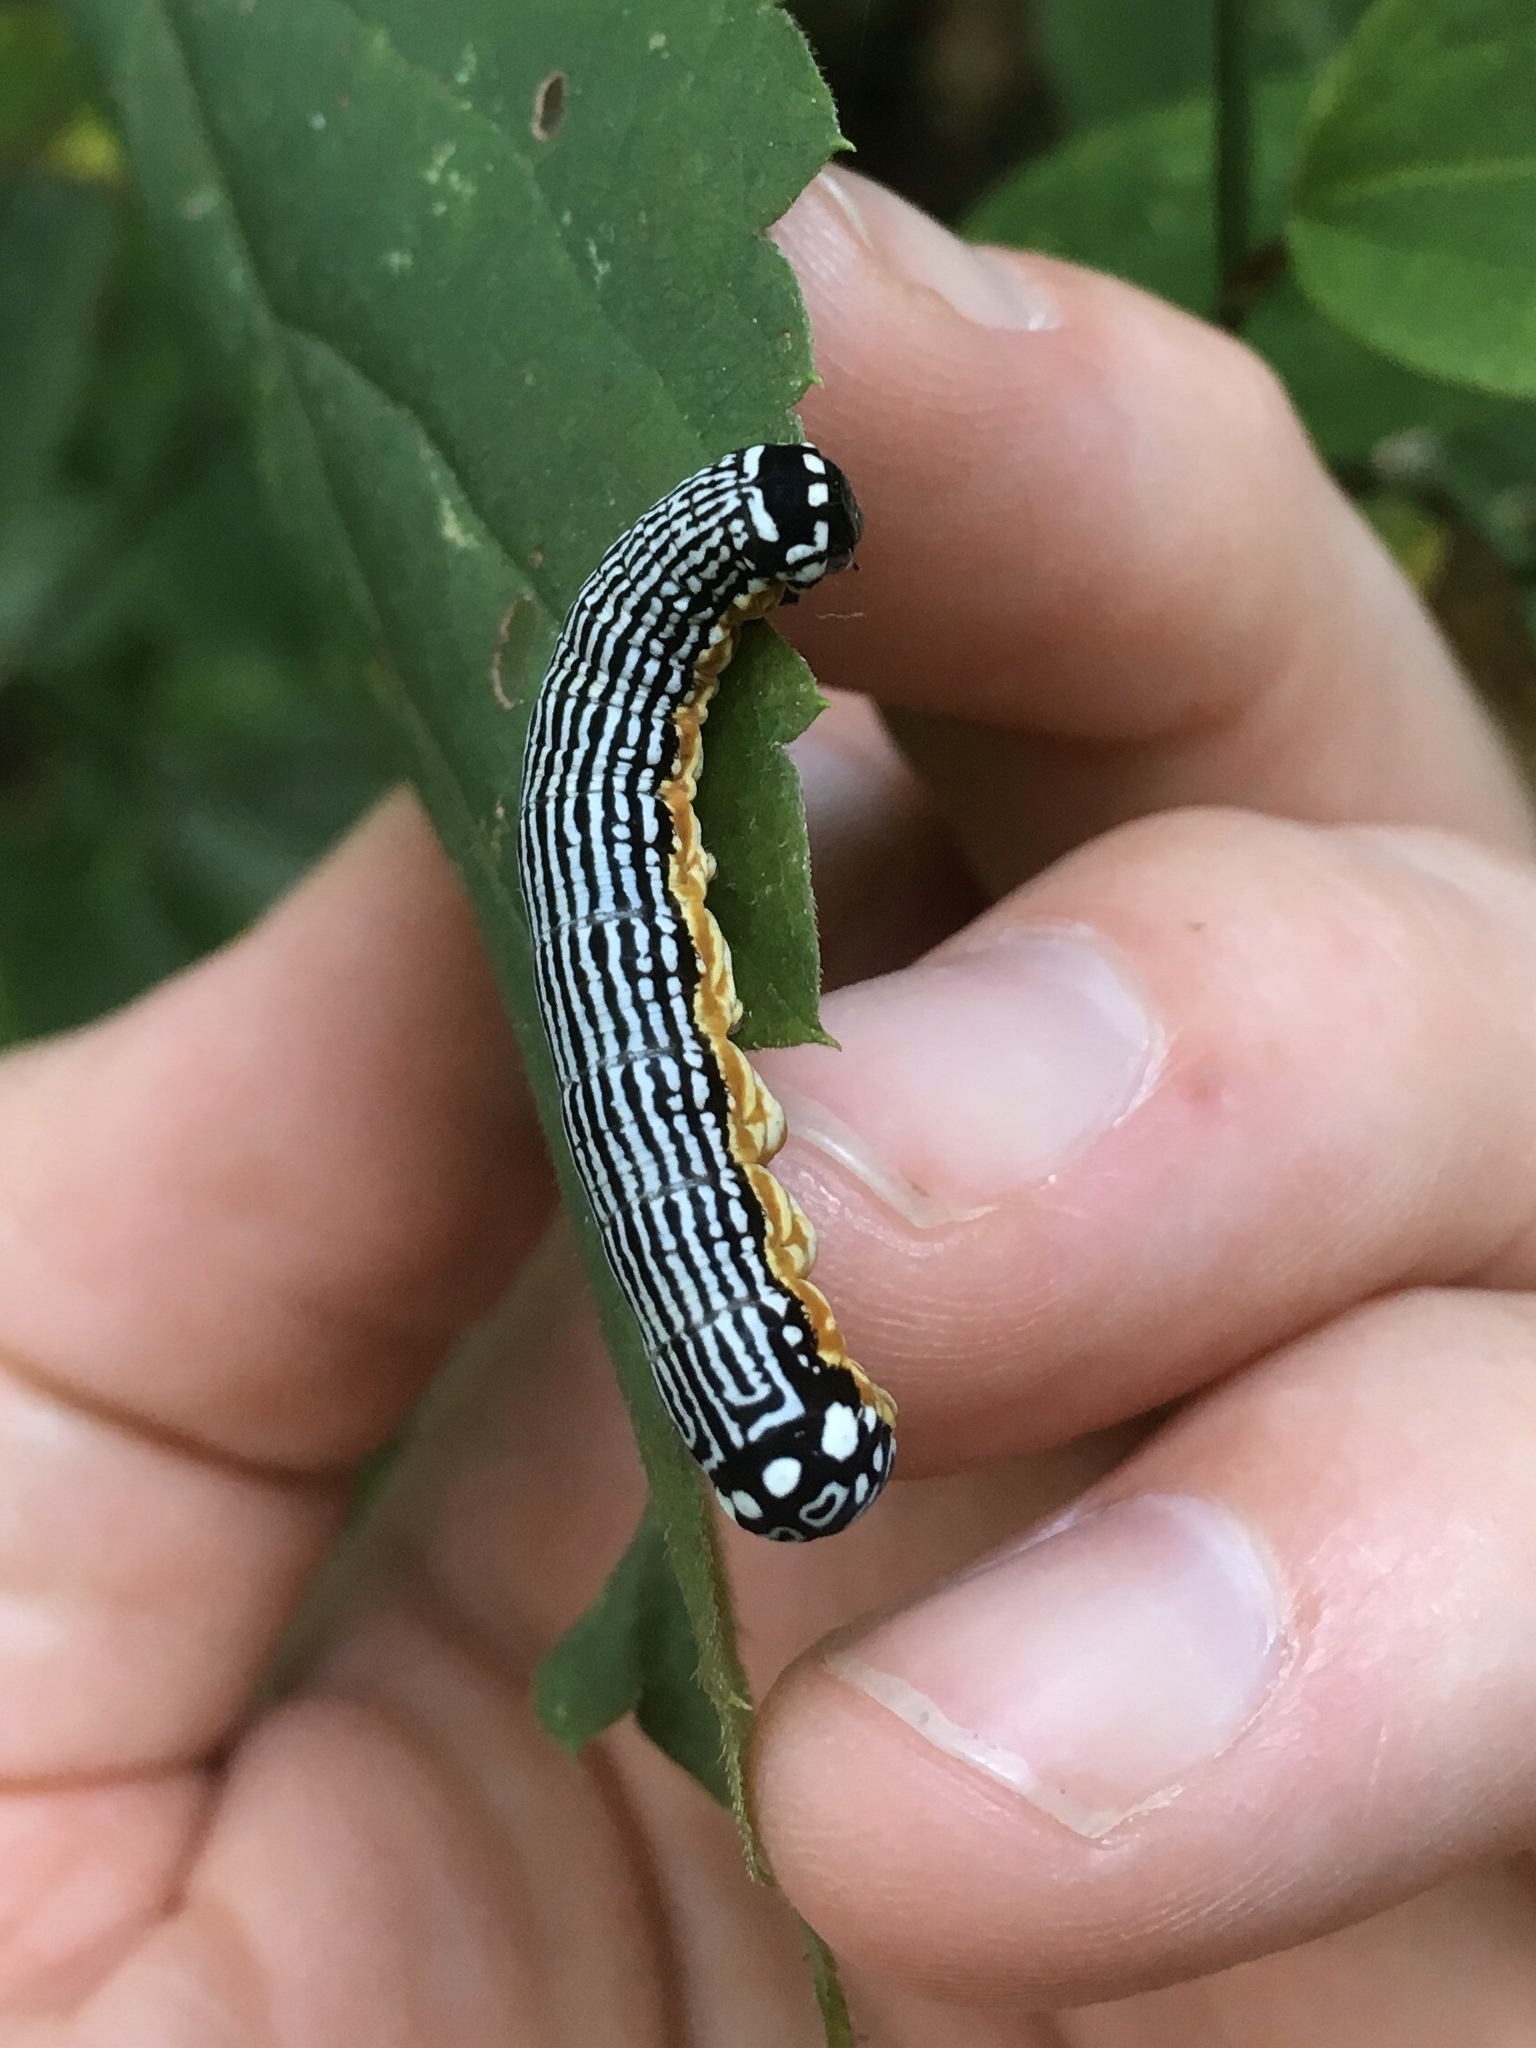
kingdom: Animalia
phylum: Arthropoda
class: Insecta
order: Lepidoptera
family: Noctuidae
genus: Phosphila
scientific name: Phosphila turbulenta
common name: Turbulent phosphila moth
